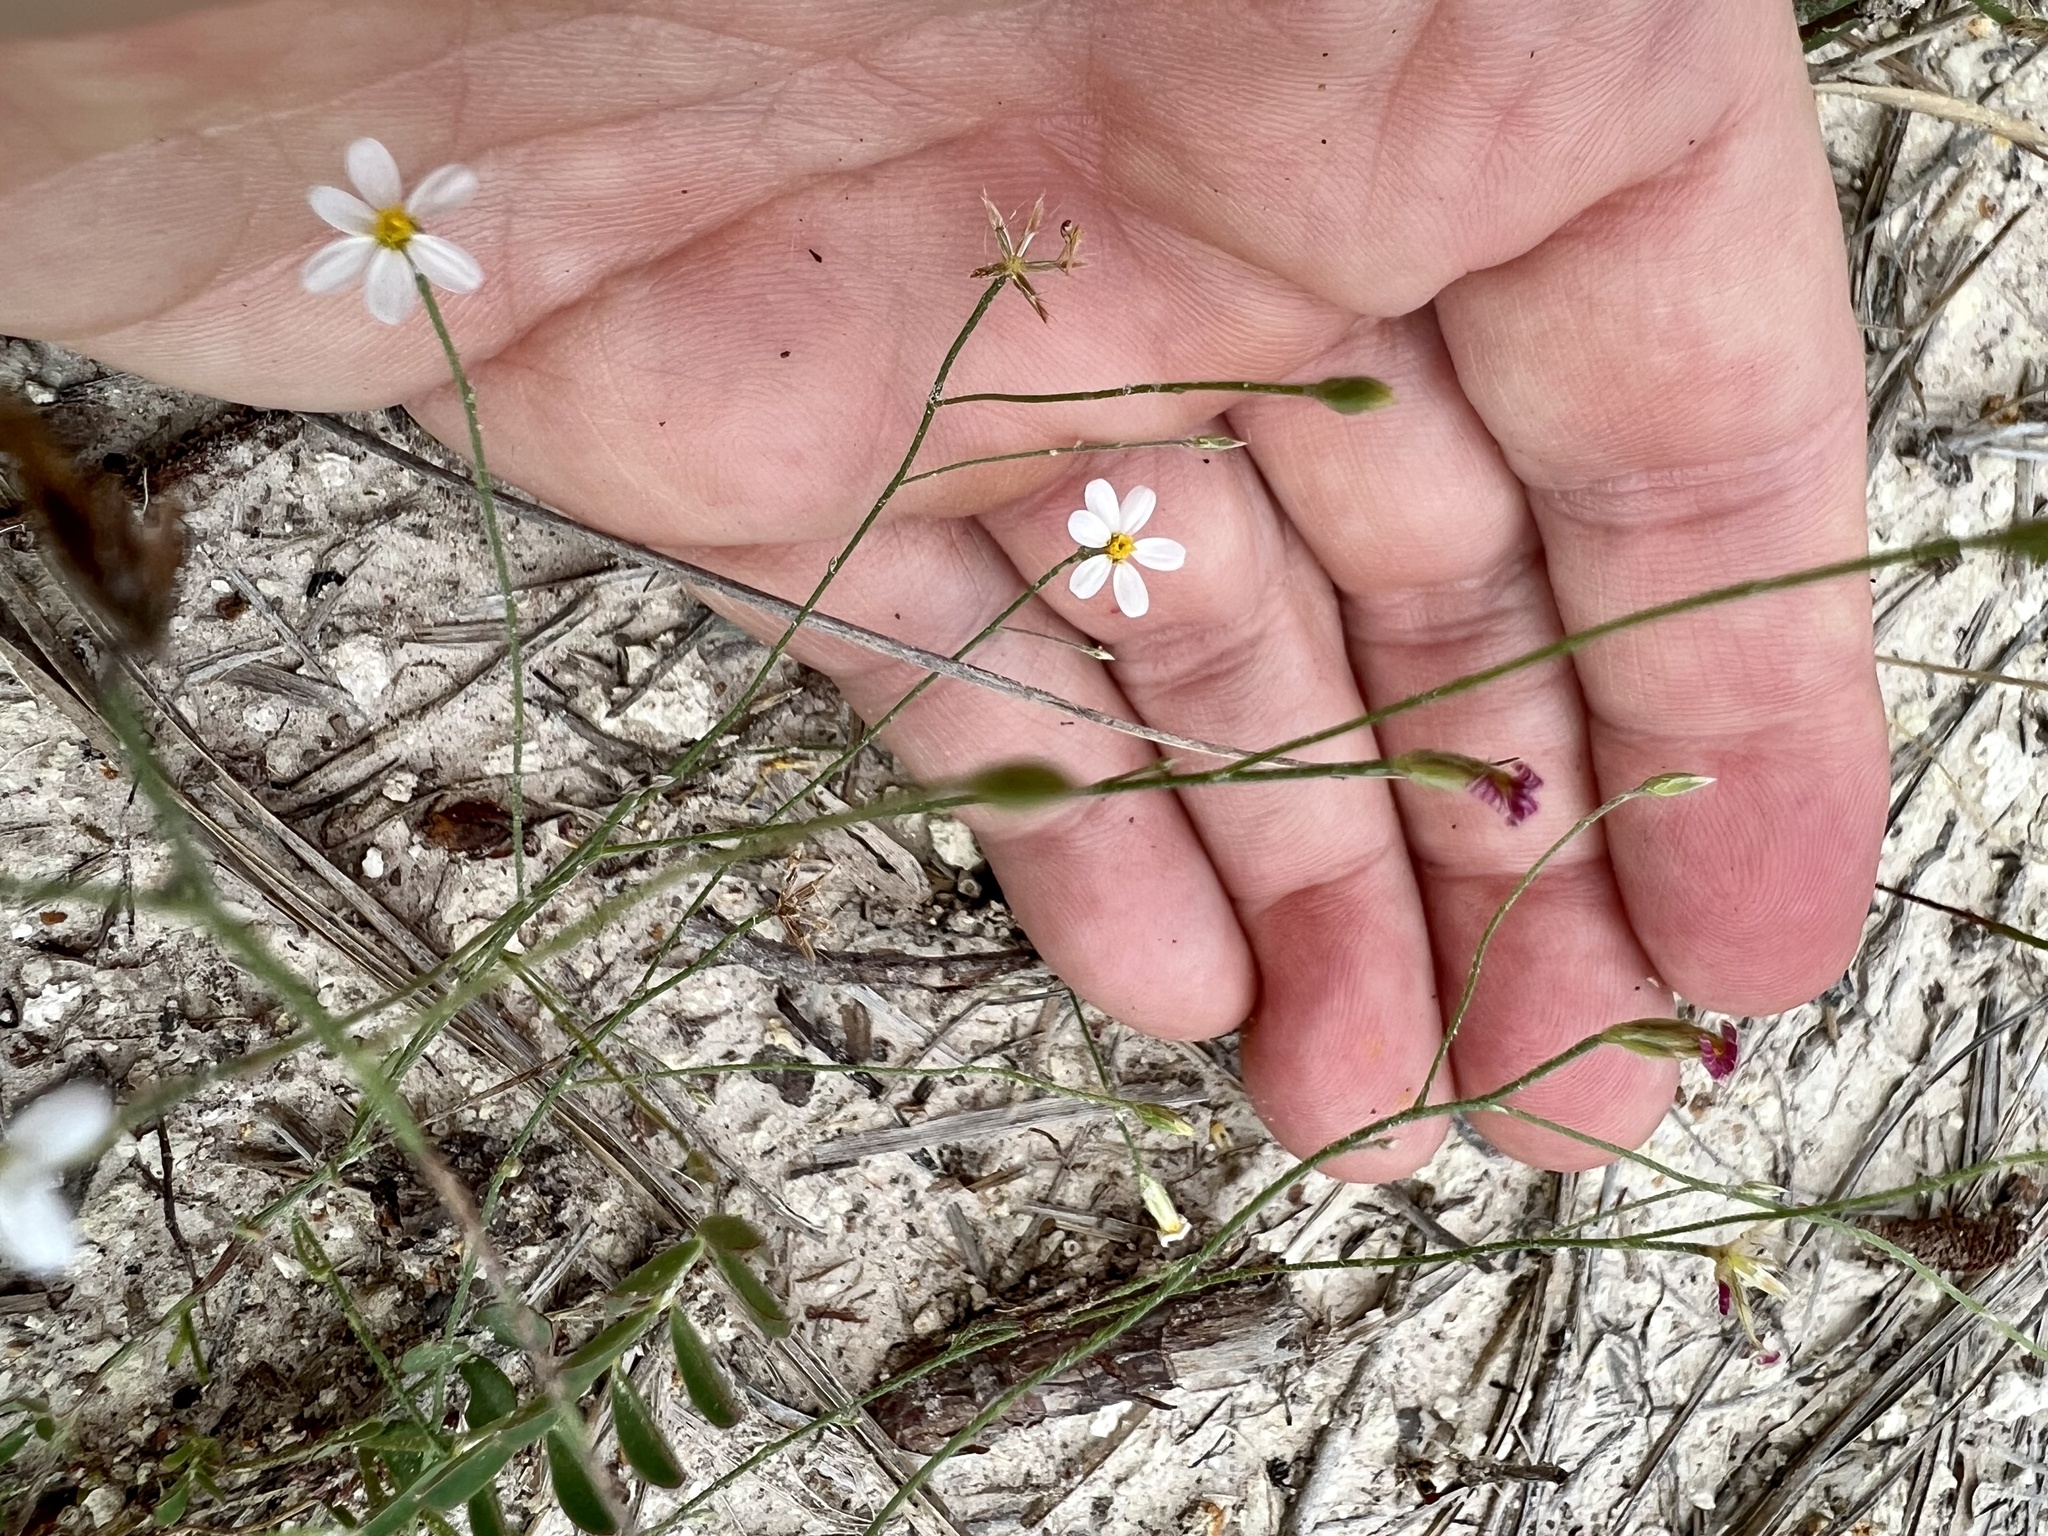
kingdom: Plantae
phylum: Tracheophyta
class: Magnoliopsida
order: Asterales
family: Asteraceae
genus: Chaetopappa
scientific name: Chaetopappa asteroides
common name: Tiny lazy daisy
